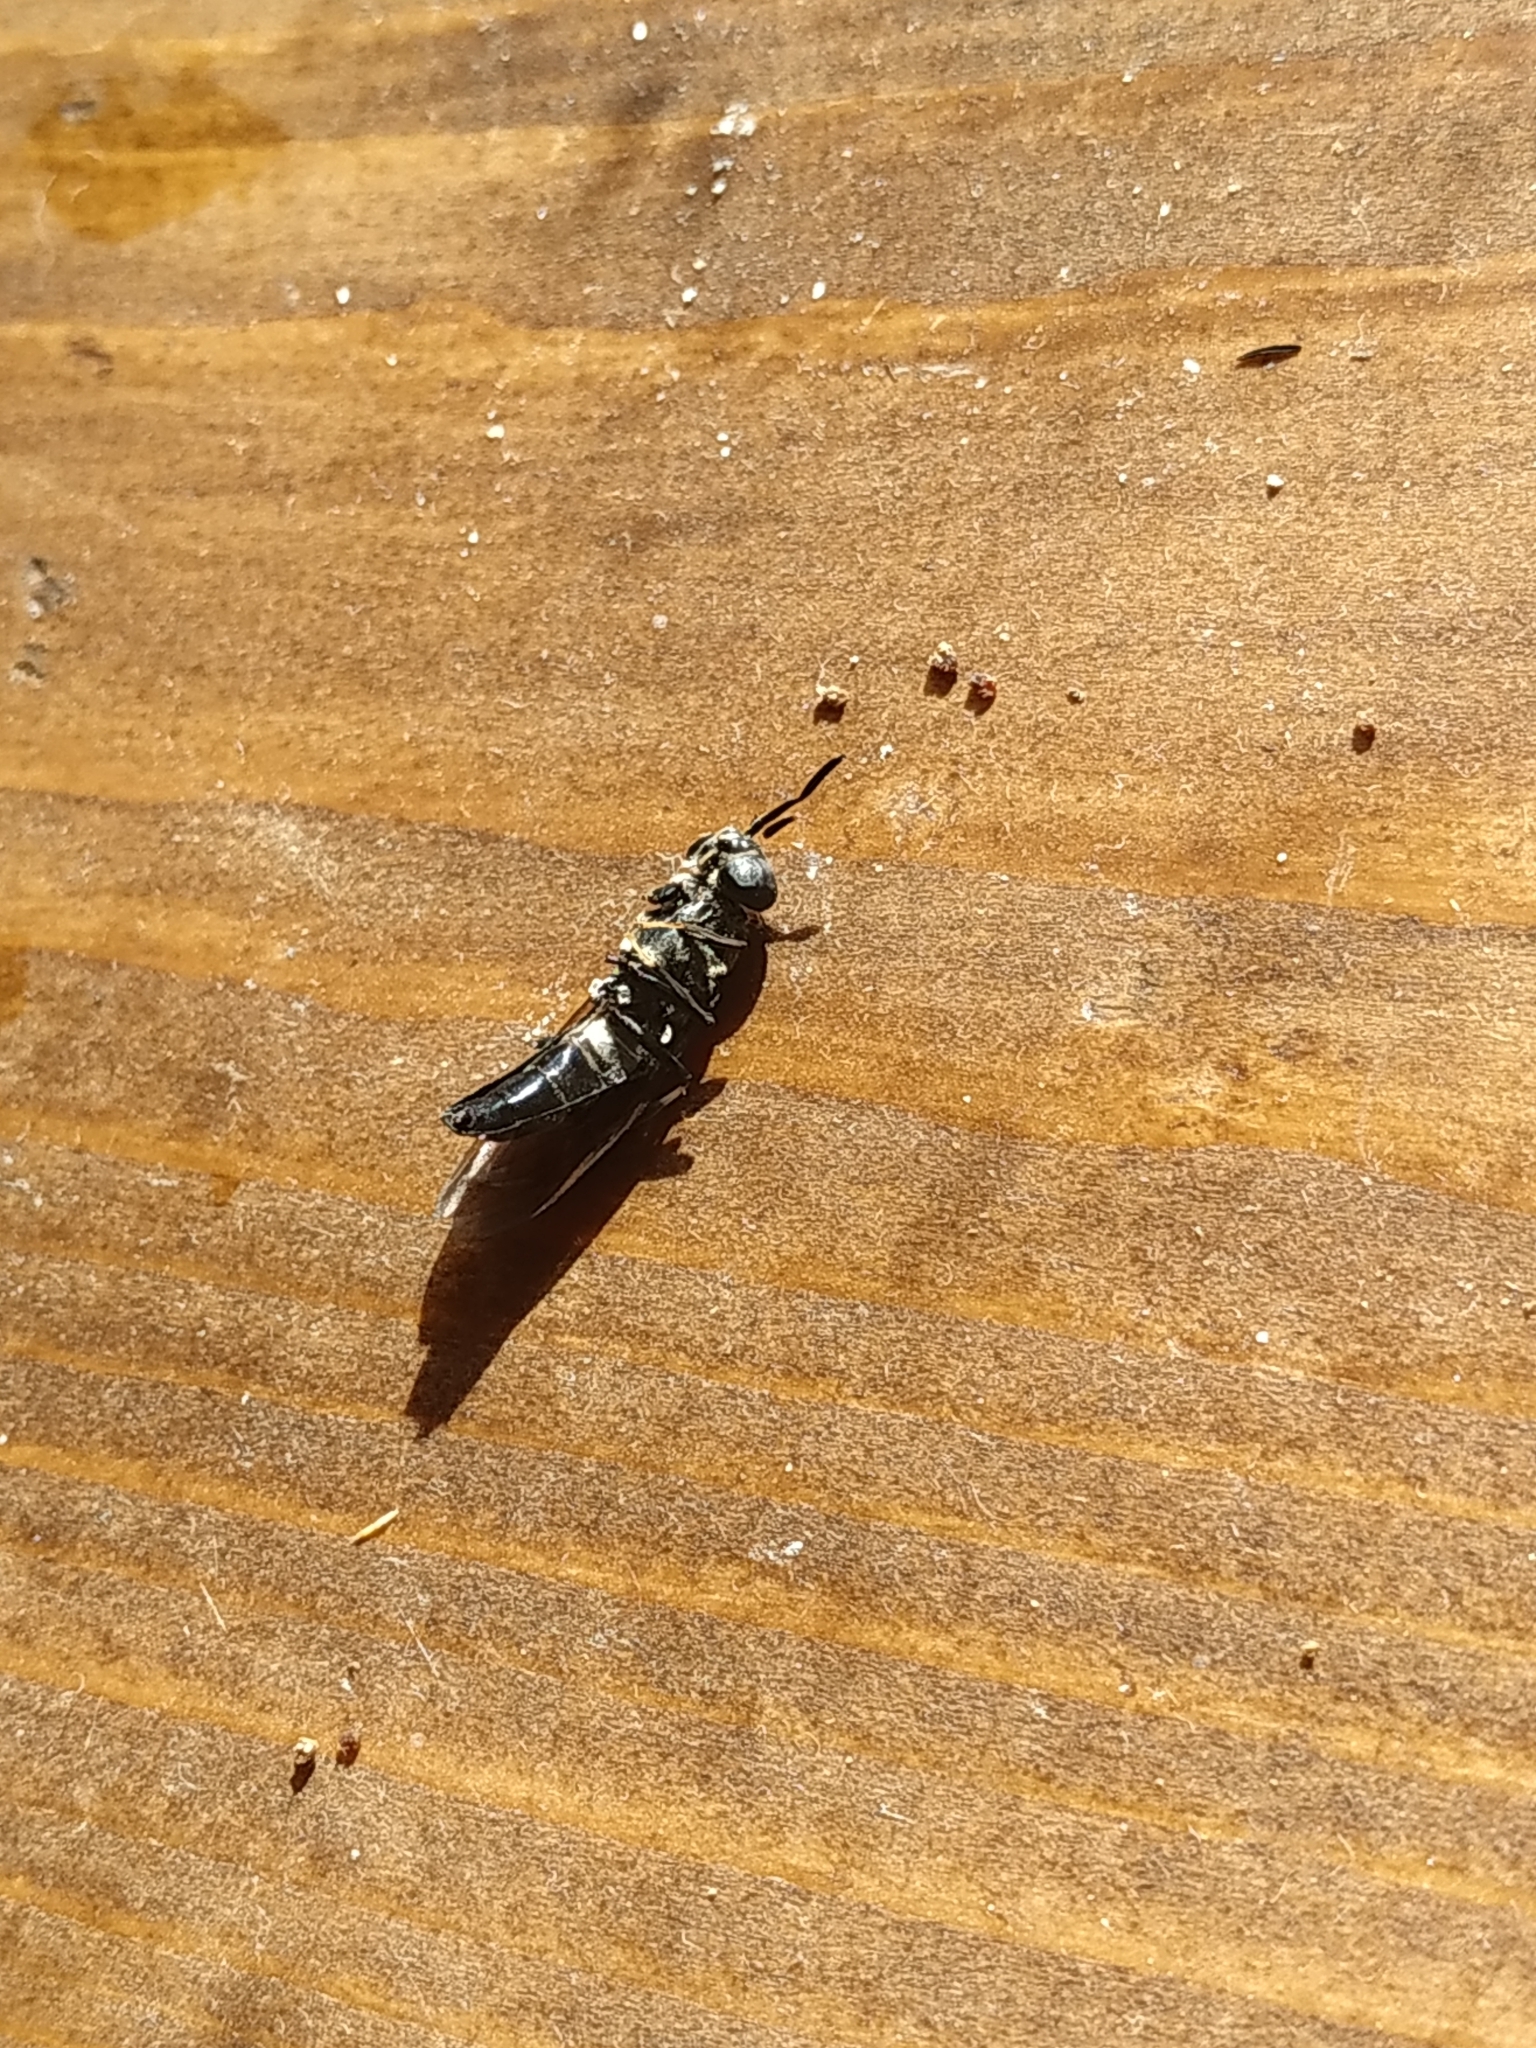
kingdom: Animalia
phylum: Arthropoda
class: Insecta
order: Diptera
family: Stratiomyidae
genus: Hermetia
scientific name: Hermetia illucens
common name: Black soldier fly
